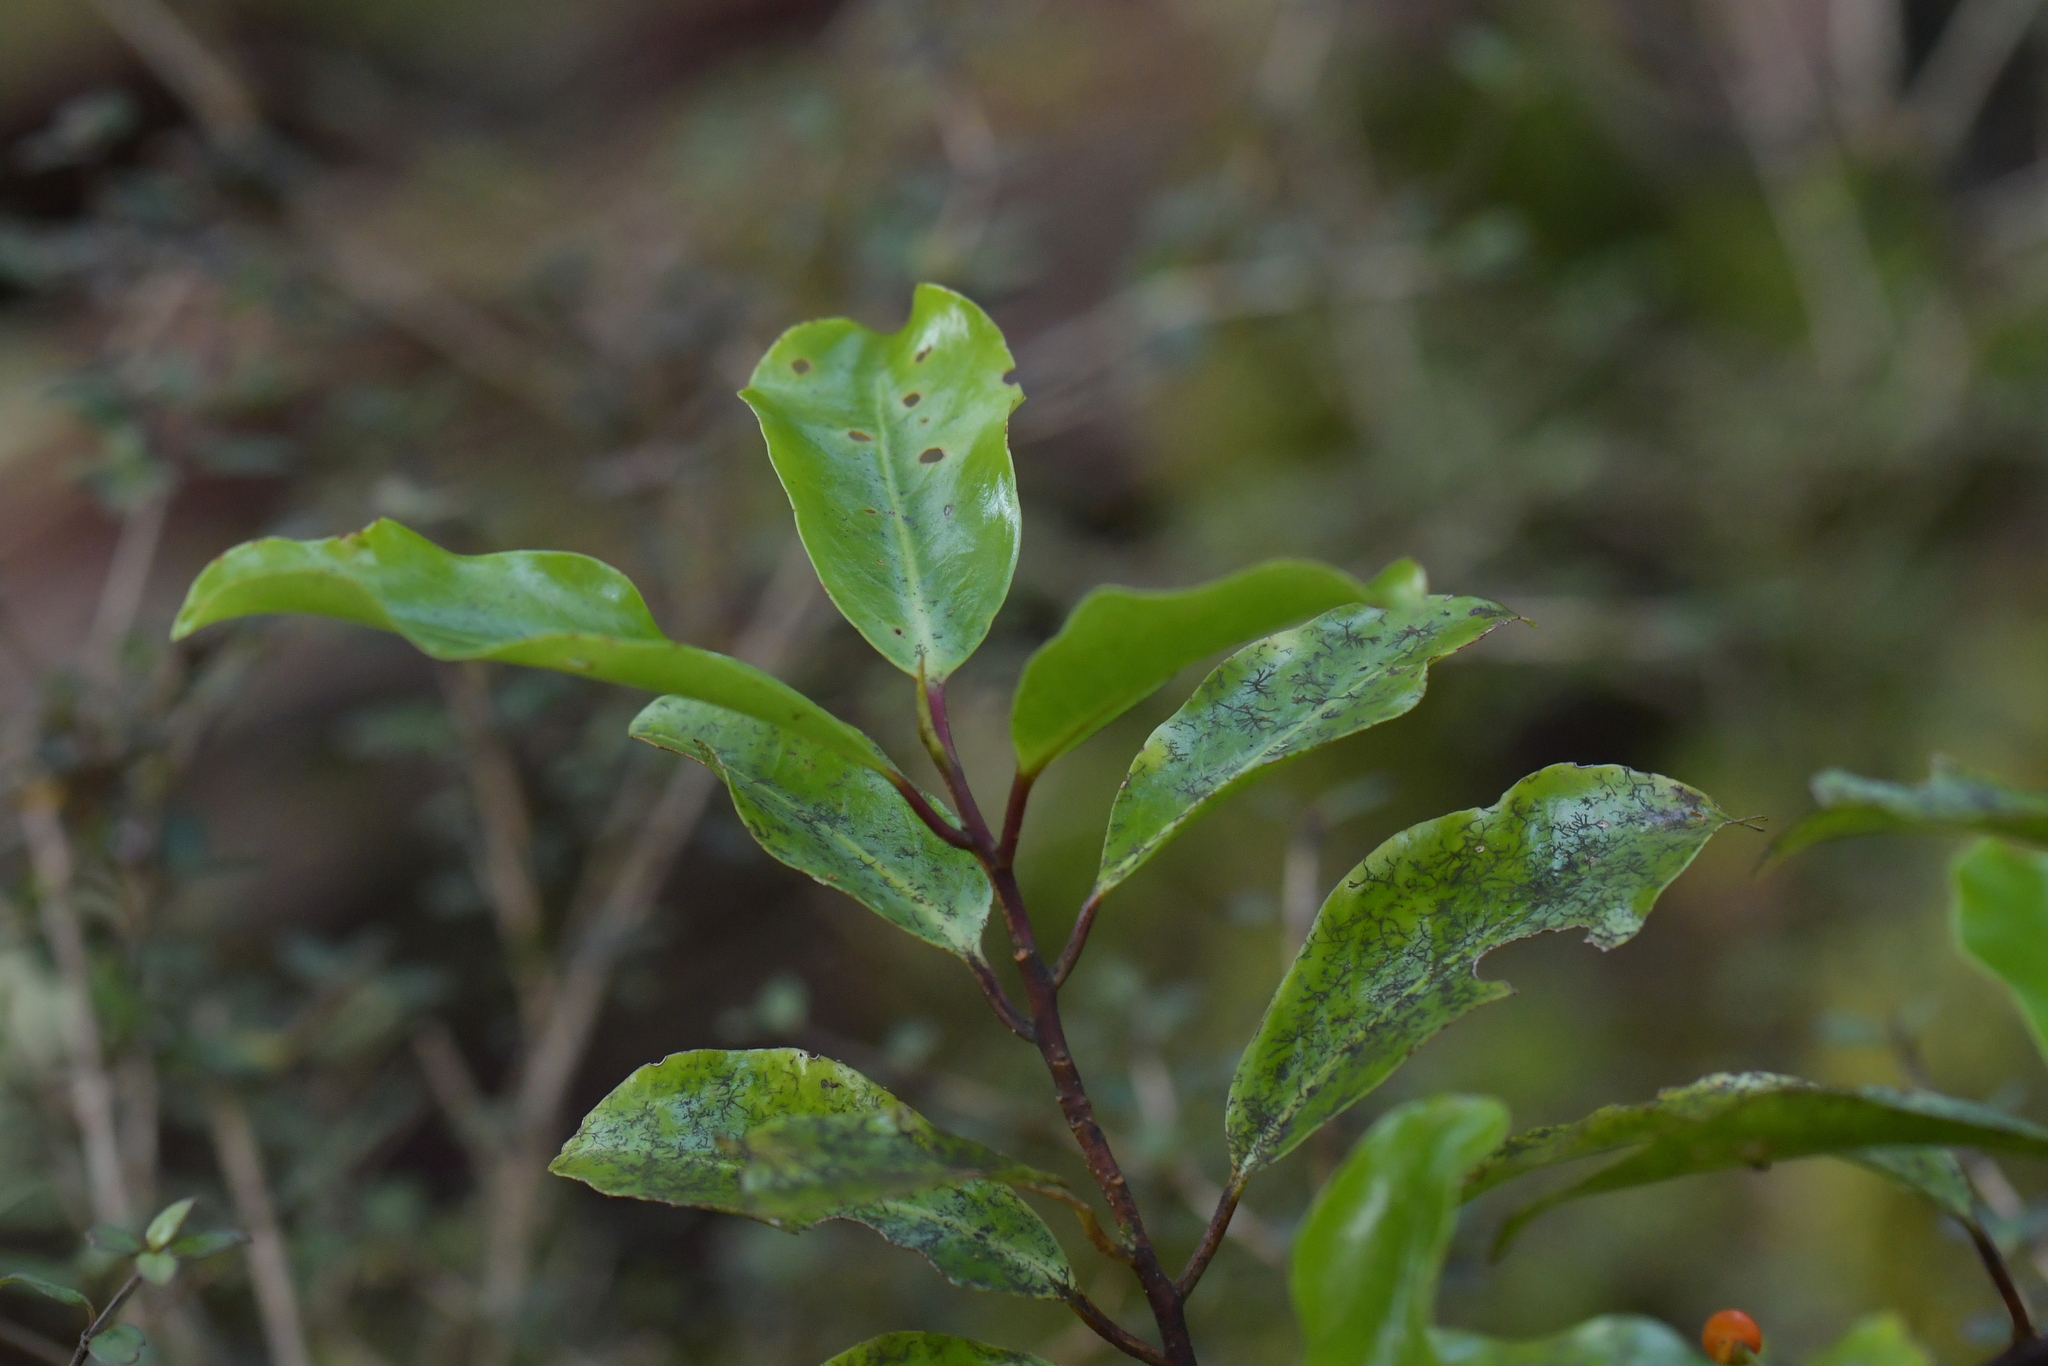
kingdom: Plantae
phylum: Tracheophyta
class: Magnoliopsida
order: Canellales
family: Winteraceae
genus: Pseudowintera
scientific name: Pseudowintera axillaris
